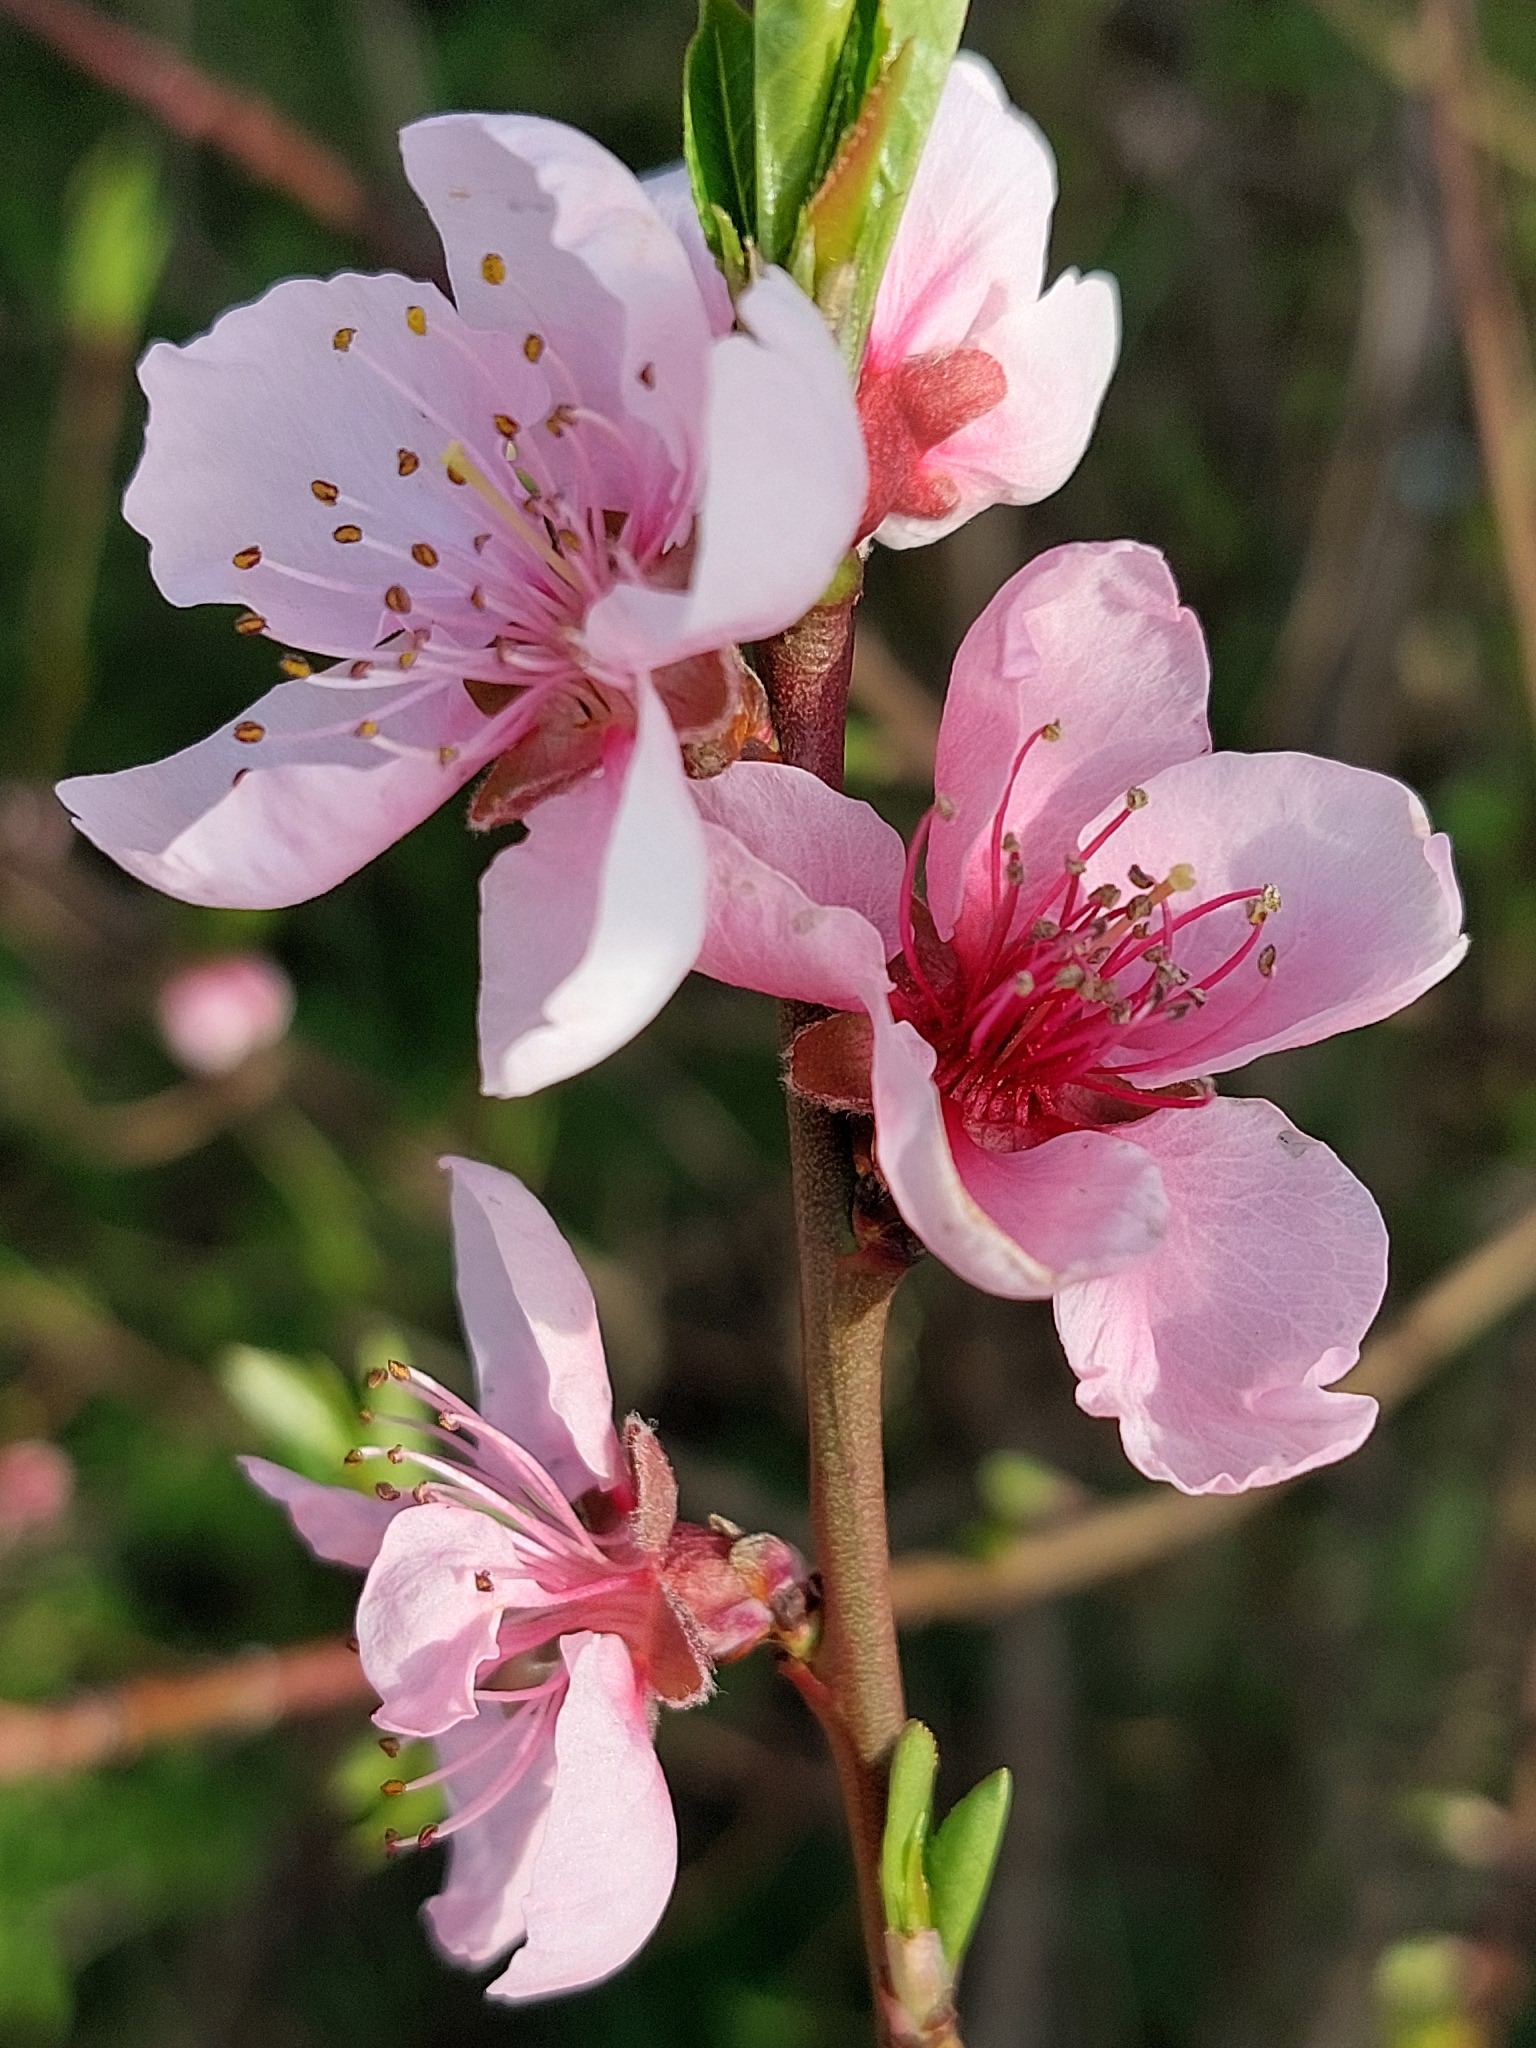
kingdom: Plantae
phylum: Tracheophyta
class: Magnoliopsida
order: Rosales
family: Rosaceae
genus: Prunus
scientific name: Prunus persica
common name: Peach
